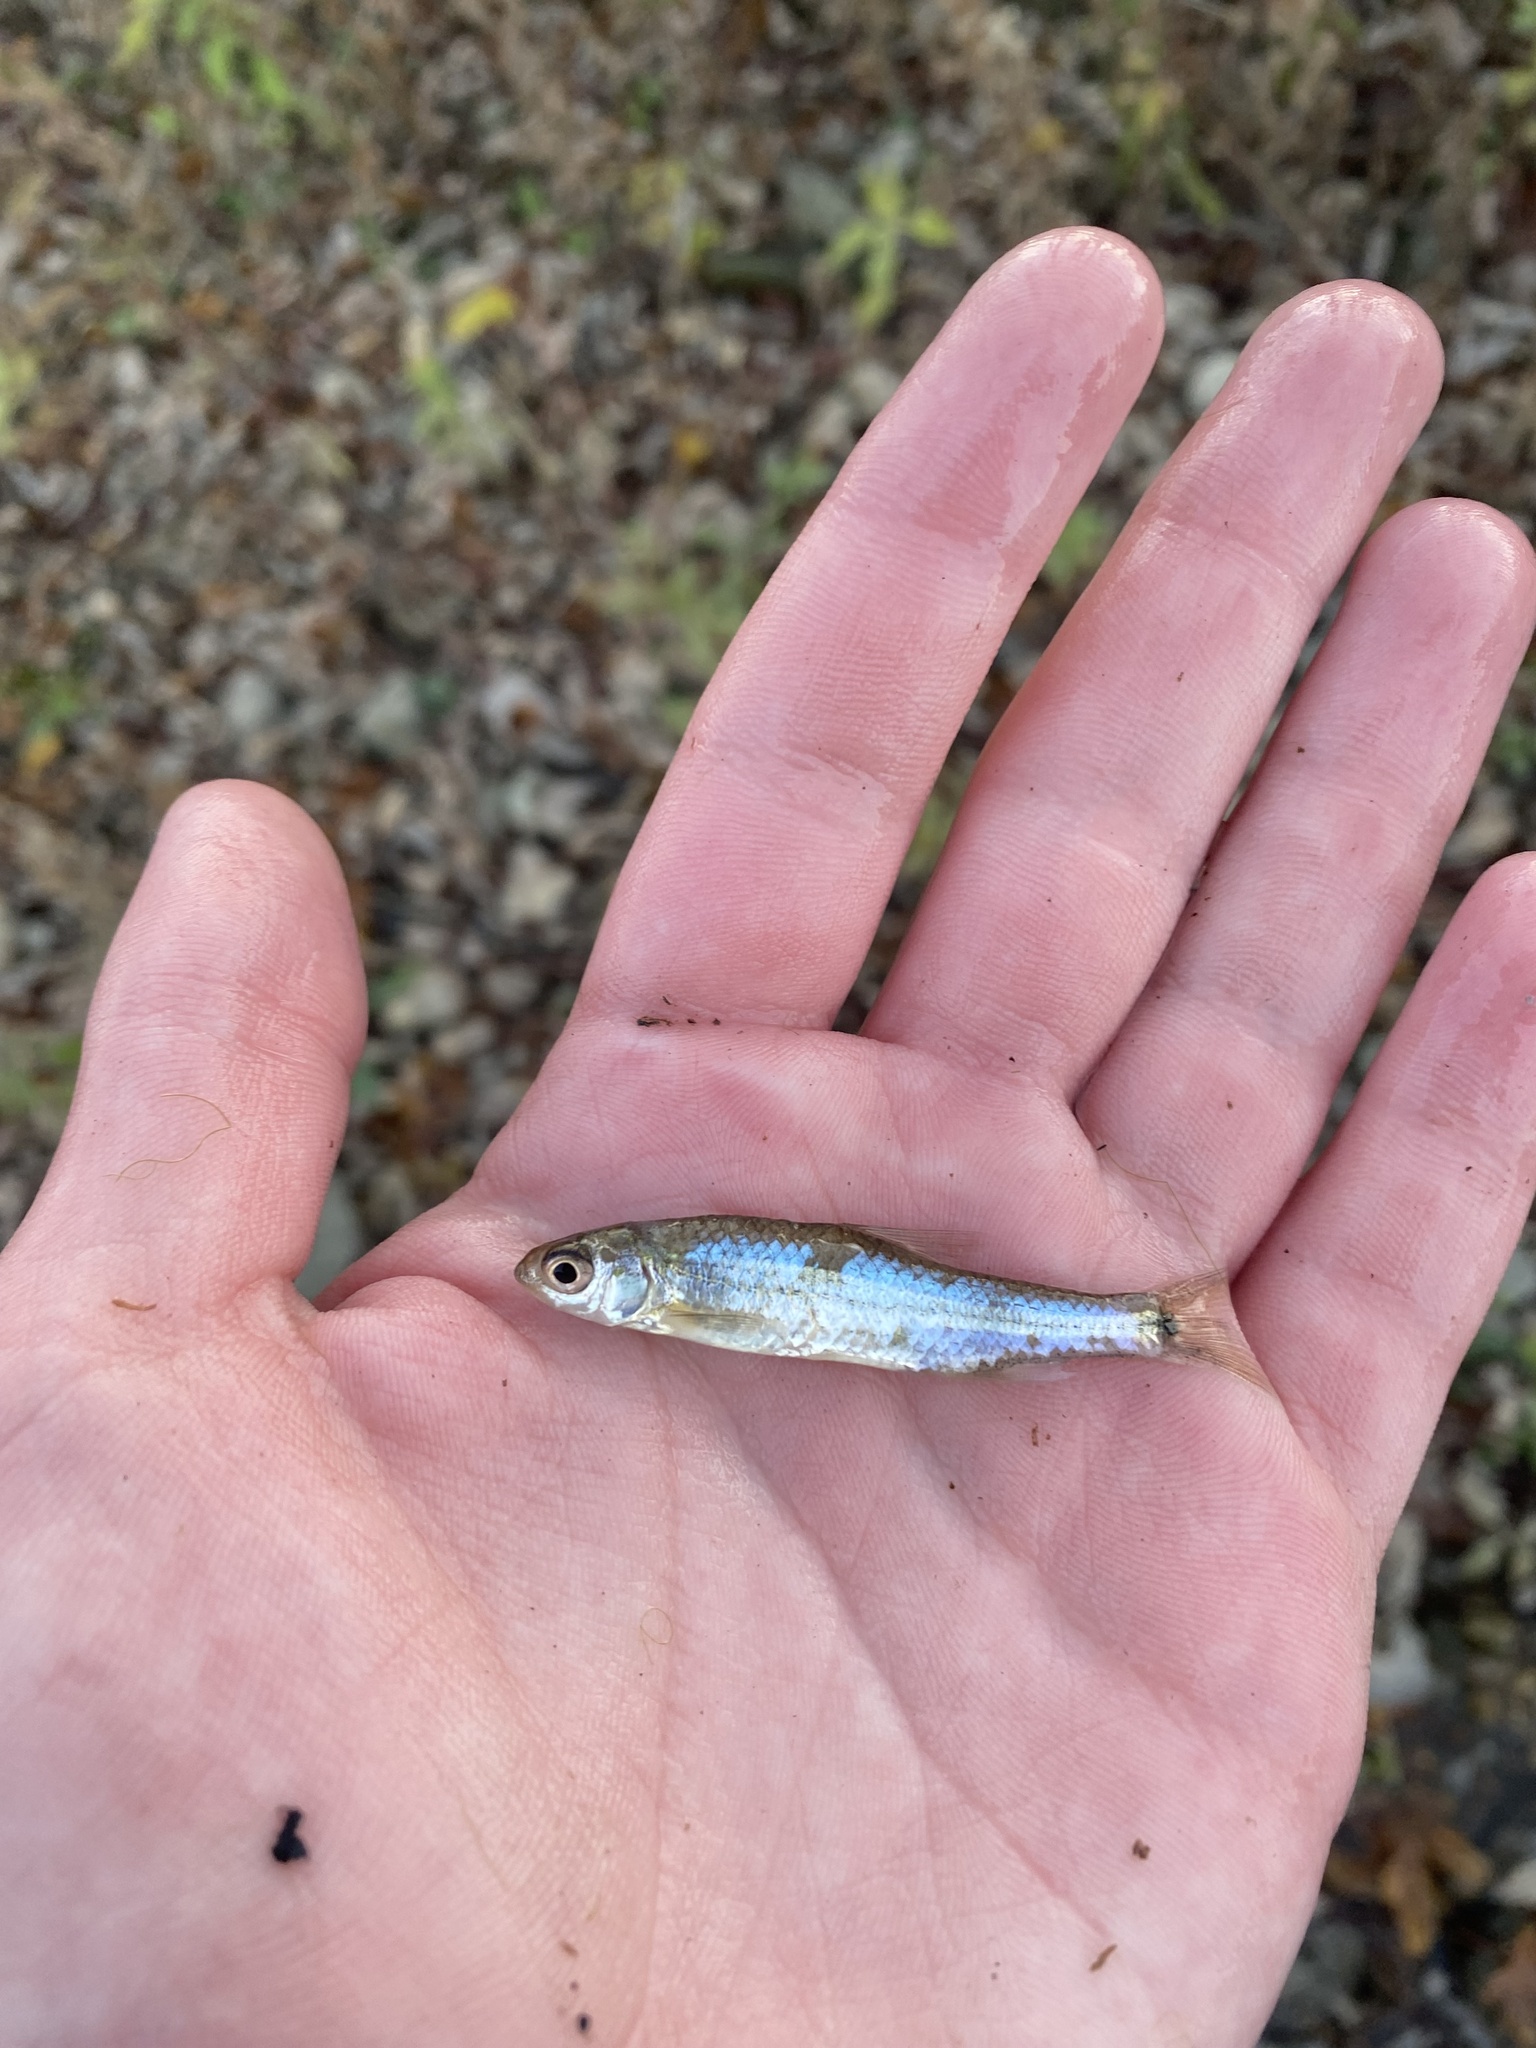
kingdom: Animalia
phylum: Chordata
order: Cypriniformes
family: Cyprinidae
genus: Notropis
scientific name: Notropis
